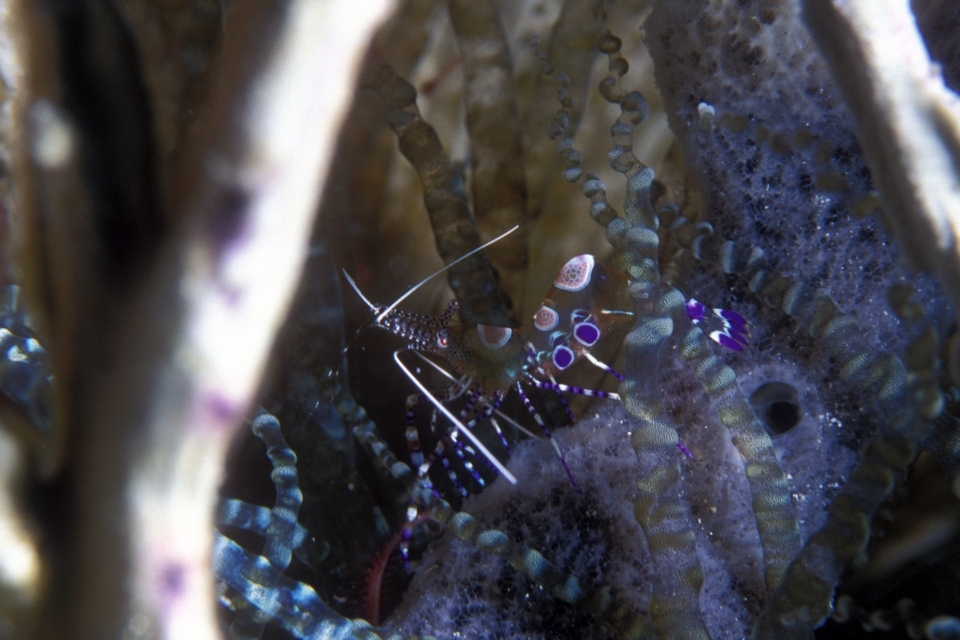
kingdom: Animalia
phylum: Arthropoda
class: Malacostraca
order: Decapoda
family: Palaemonidae
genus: Periclimenes
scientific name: Periclimenes yucatanicus
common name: Spotted cleaning shrimp
